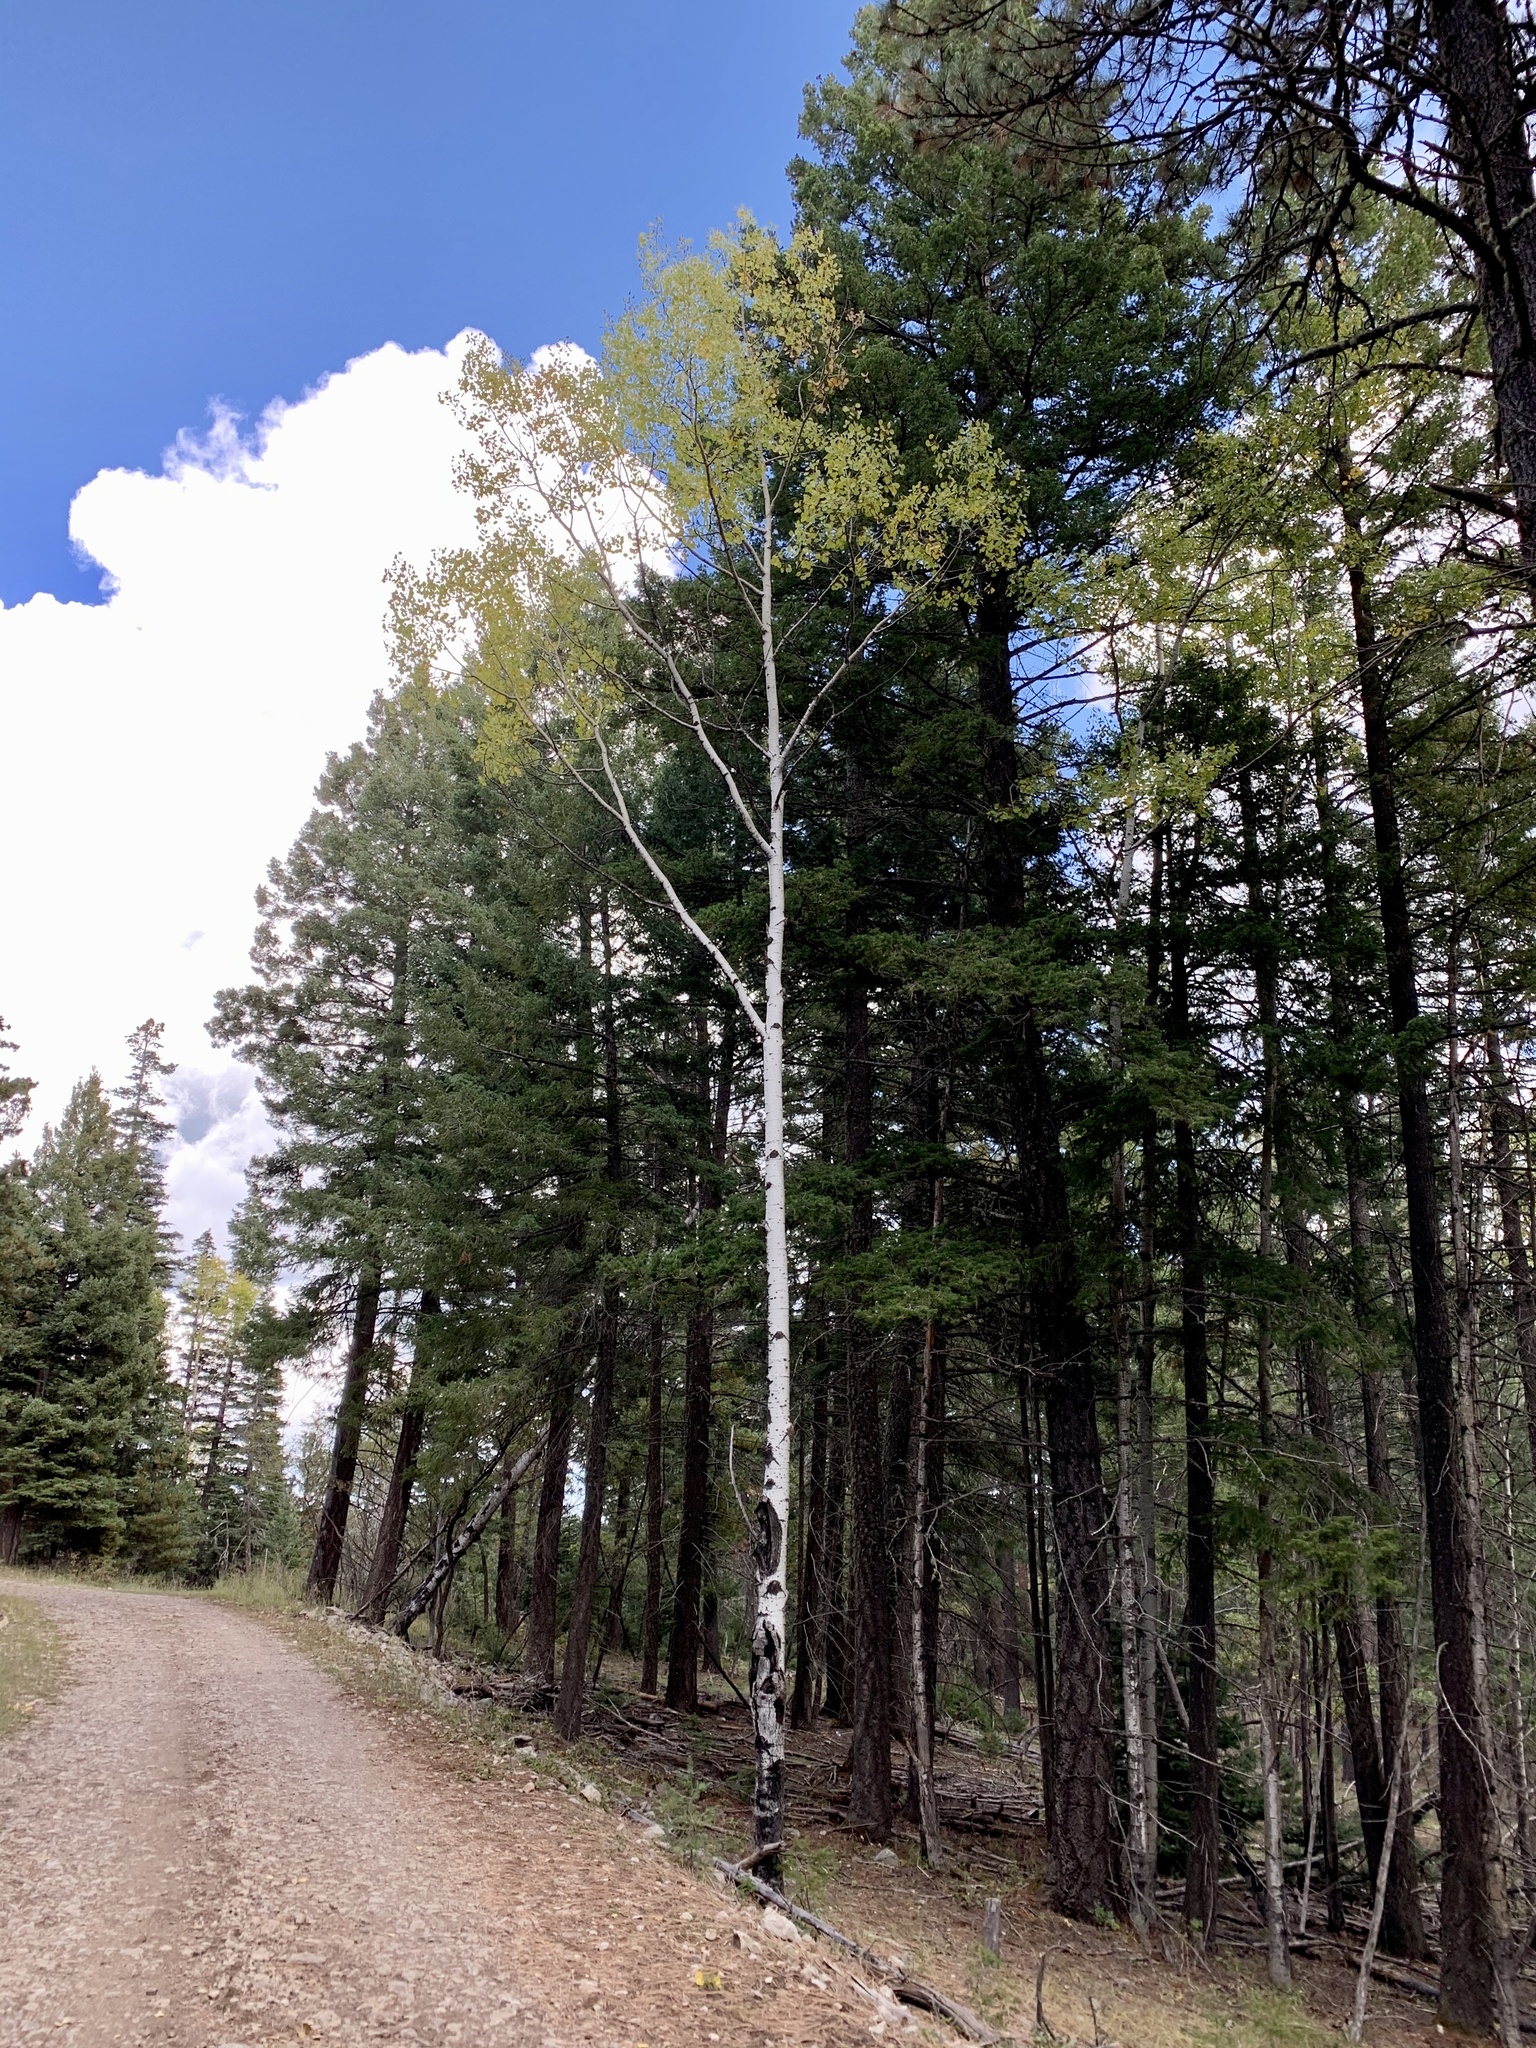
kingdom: Plantae
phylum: Tracheophyta
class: Magnoliopsida
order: Malpighiales
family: Salicaceae
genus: Populus
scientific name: Populus tremuloides
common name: Quaking aspen
